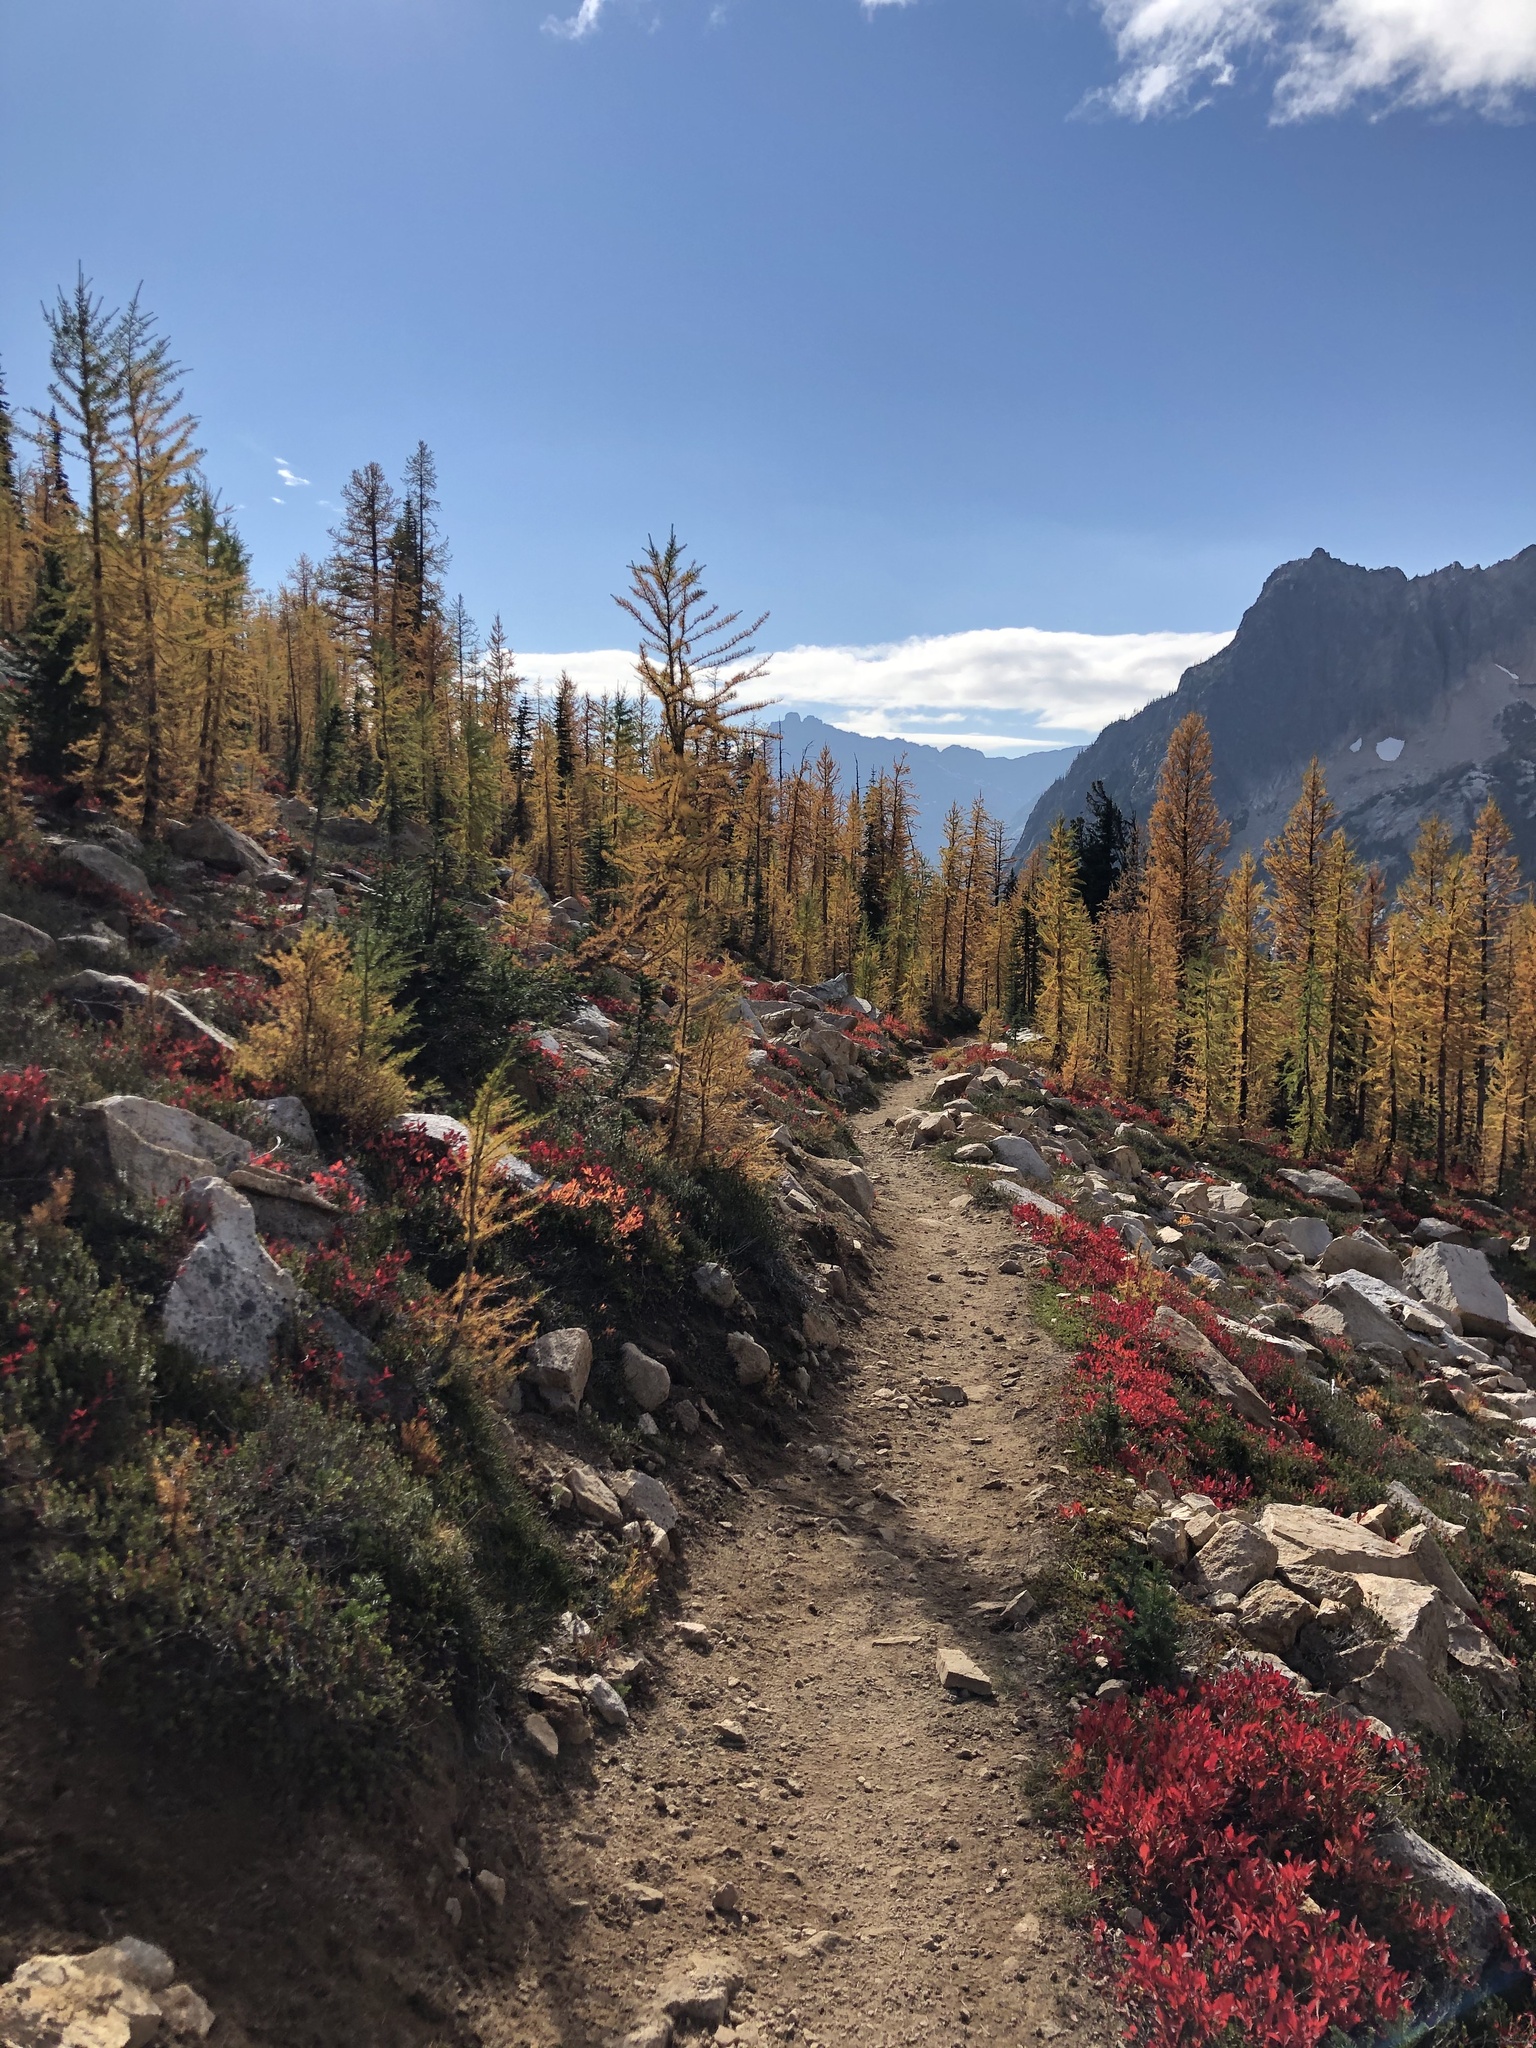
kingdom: Plantae
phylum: Tracheophyta
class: Pinopsida
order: Pinales
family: Pinaceae
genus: Larix
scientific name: Larix lyallii
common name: Alpine larch
